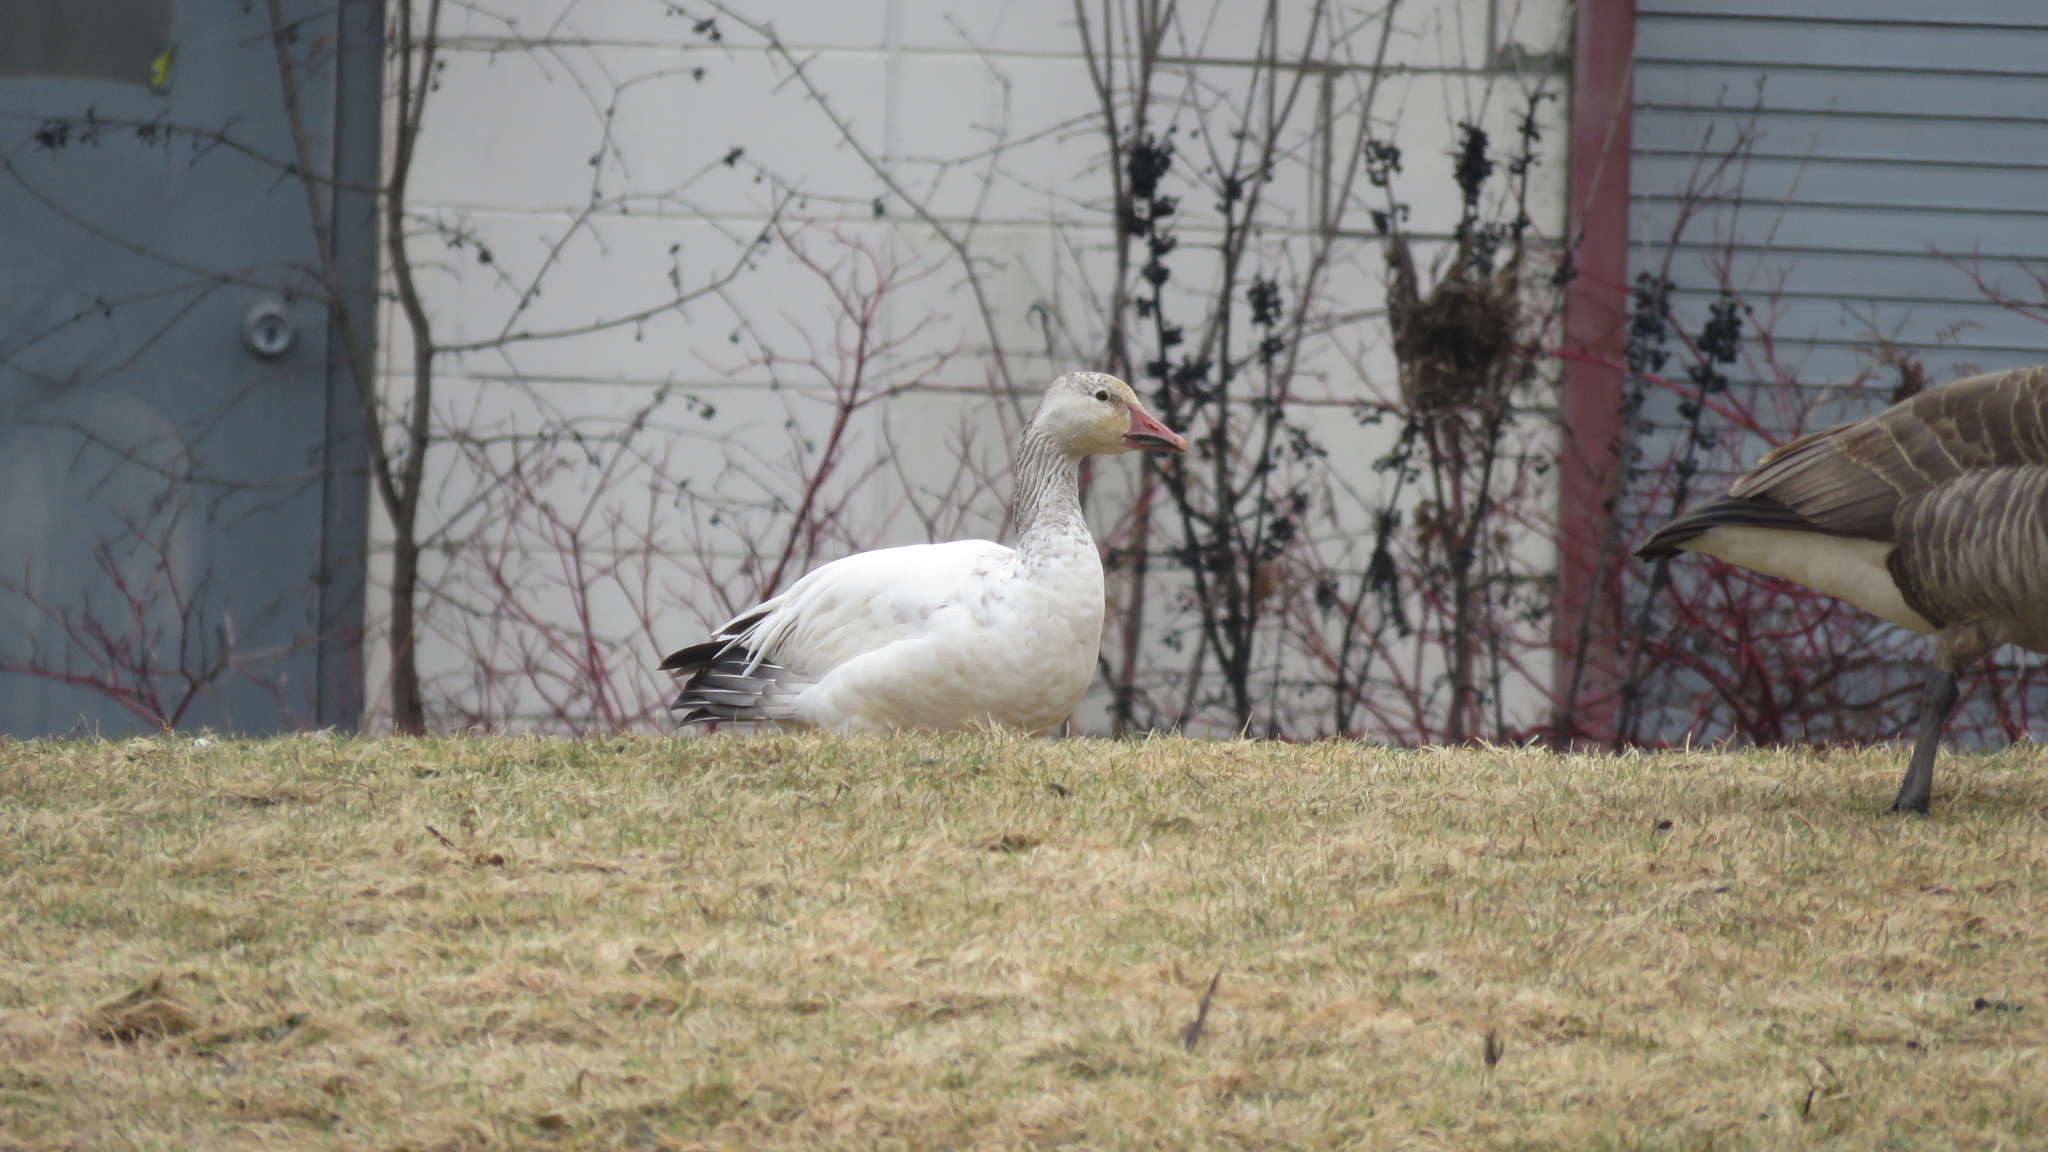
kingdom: Animalia
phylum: Chordata
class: Aves
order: Anseriformes
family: Anatidae
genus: Anser
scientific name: Anser caerulescens
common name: Snow goose
